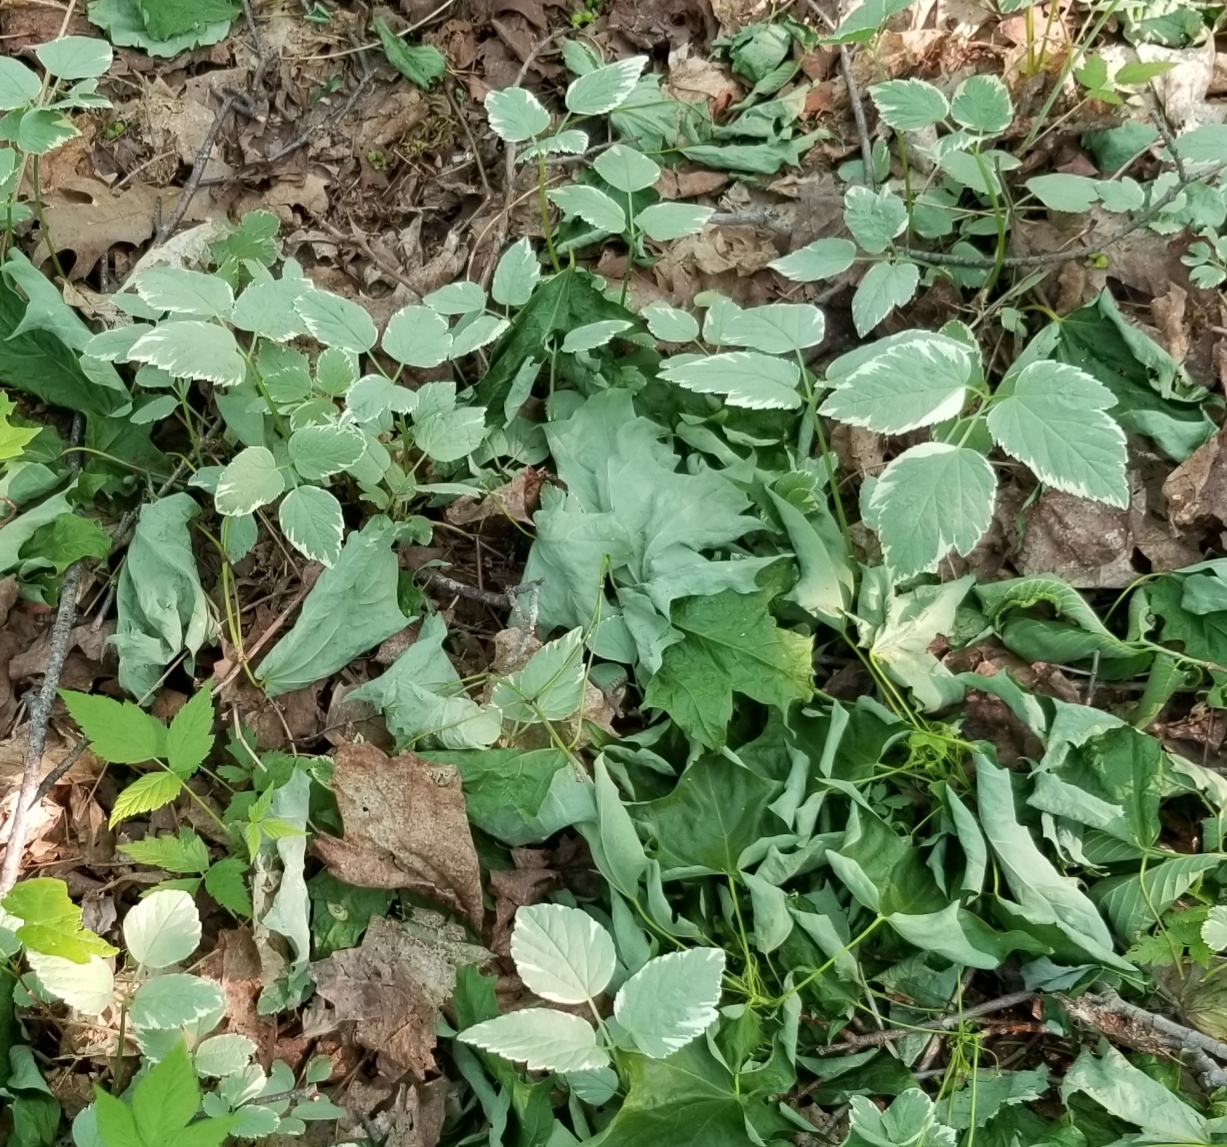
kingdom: Plantae
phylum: Tracheophyta
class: Magnoliopsida
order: Apiales
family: Apiaceae
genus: Aegopodium
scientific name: Aegopodium podagraria
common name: Ground-elder
